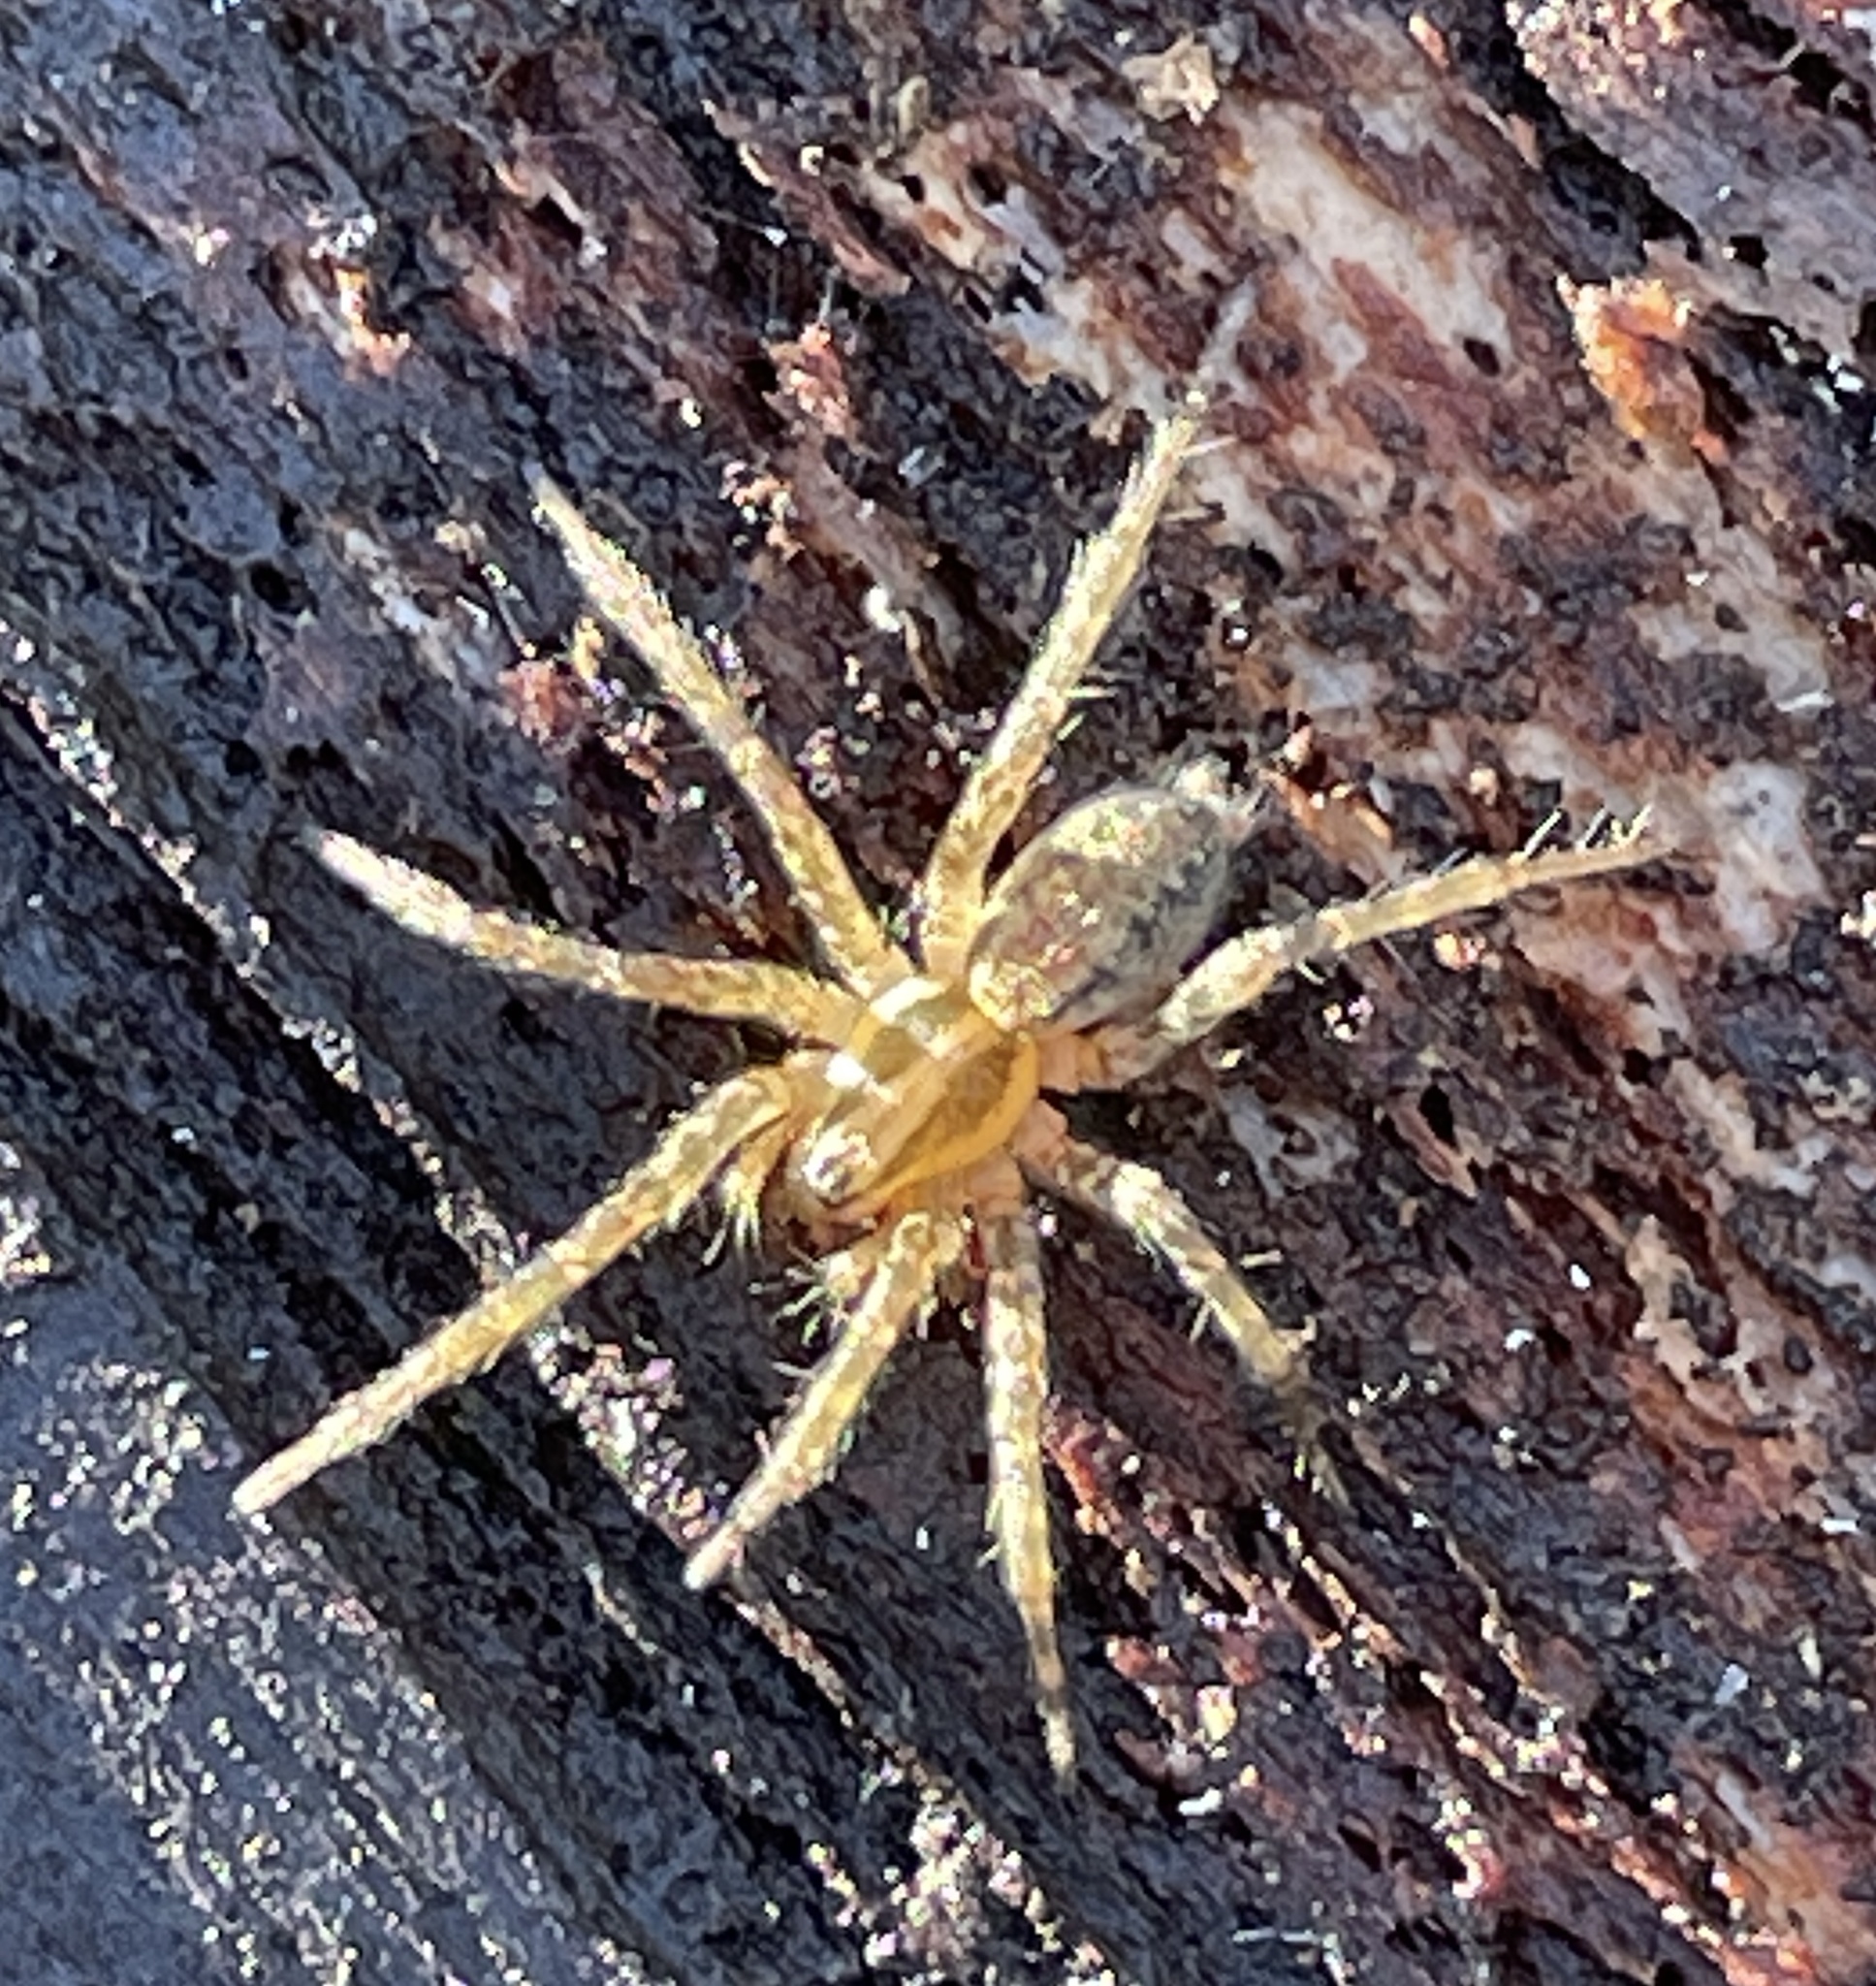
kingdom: Animalia
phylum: Arthropoda
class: Arachnida
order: Araneae
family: Agelenidae
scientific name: Agelenidae
